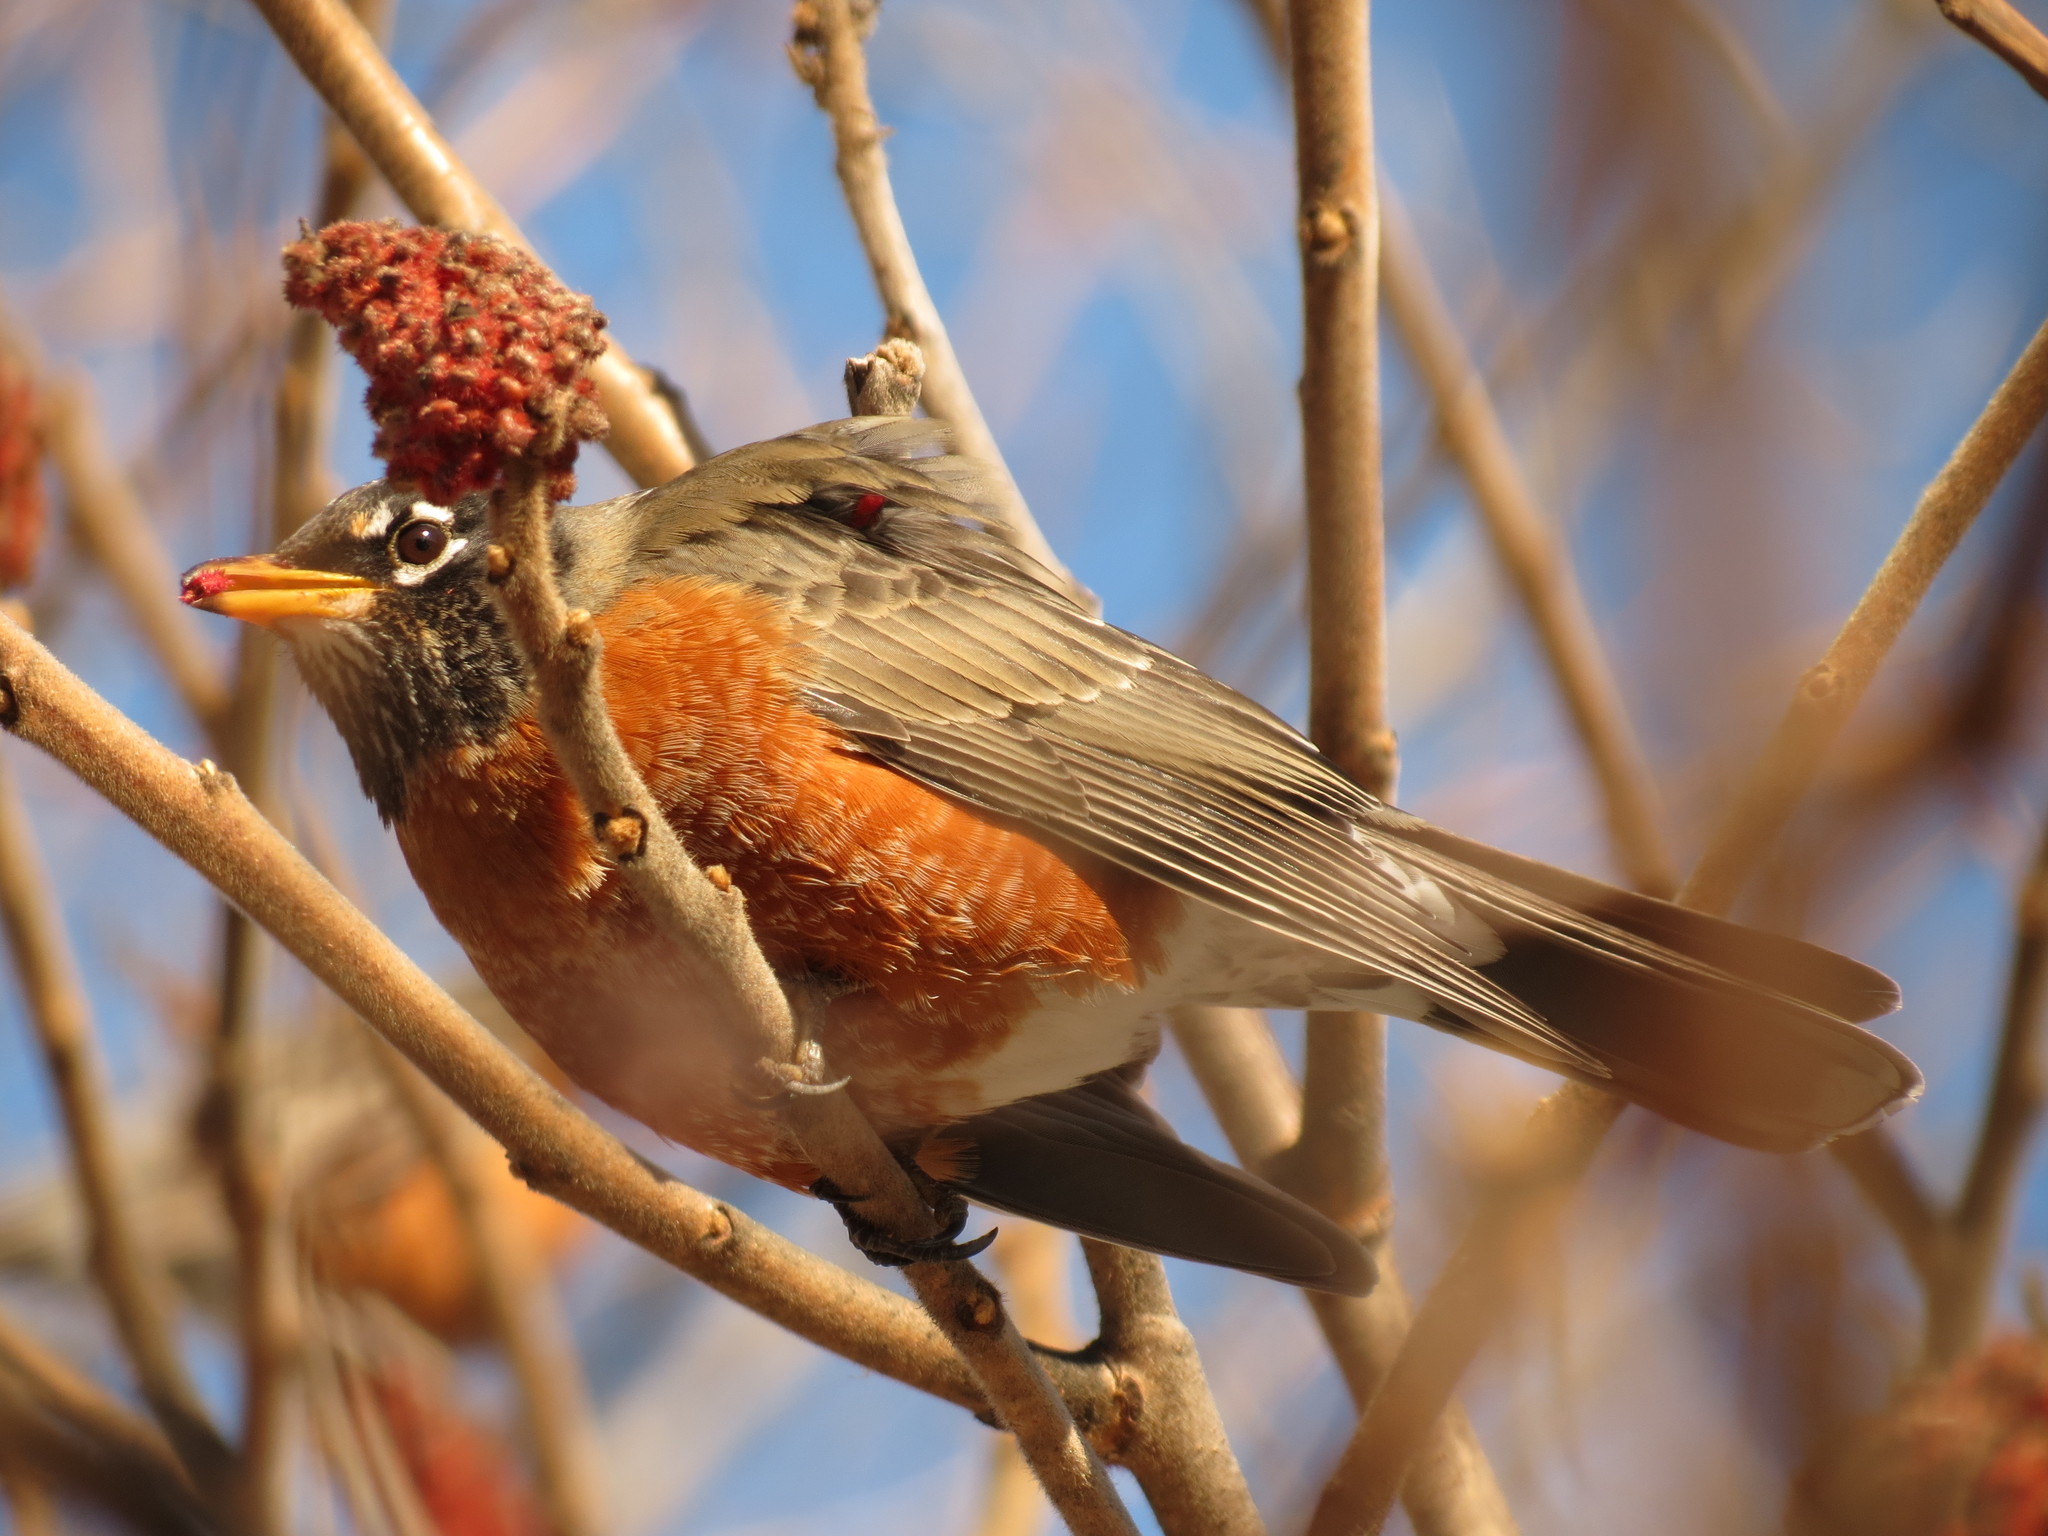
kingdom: Plantae
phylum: Tracheophyta
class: Magnoliopsida
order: Sapindales
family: Anacardiaceae
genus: Rhus
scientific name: Rhus typhina
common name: Staghorn sumac
